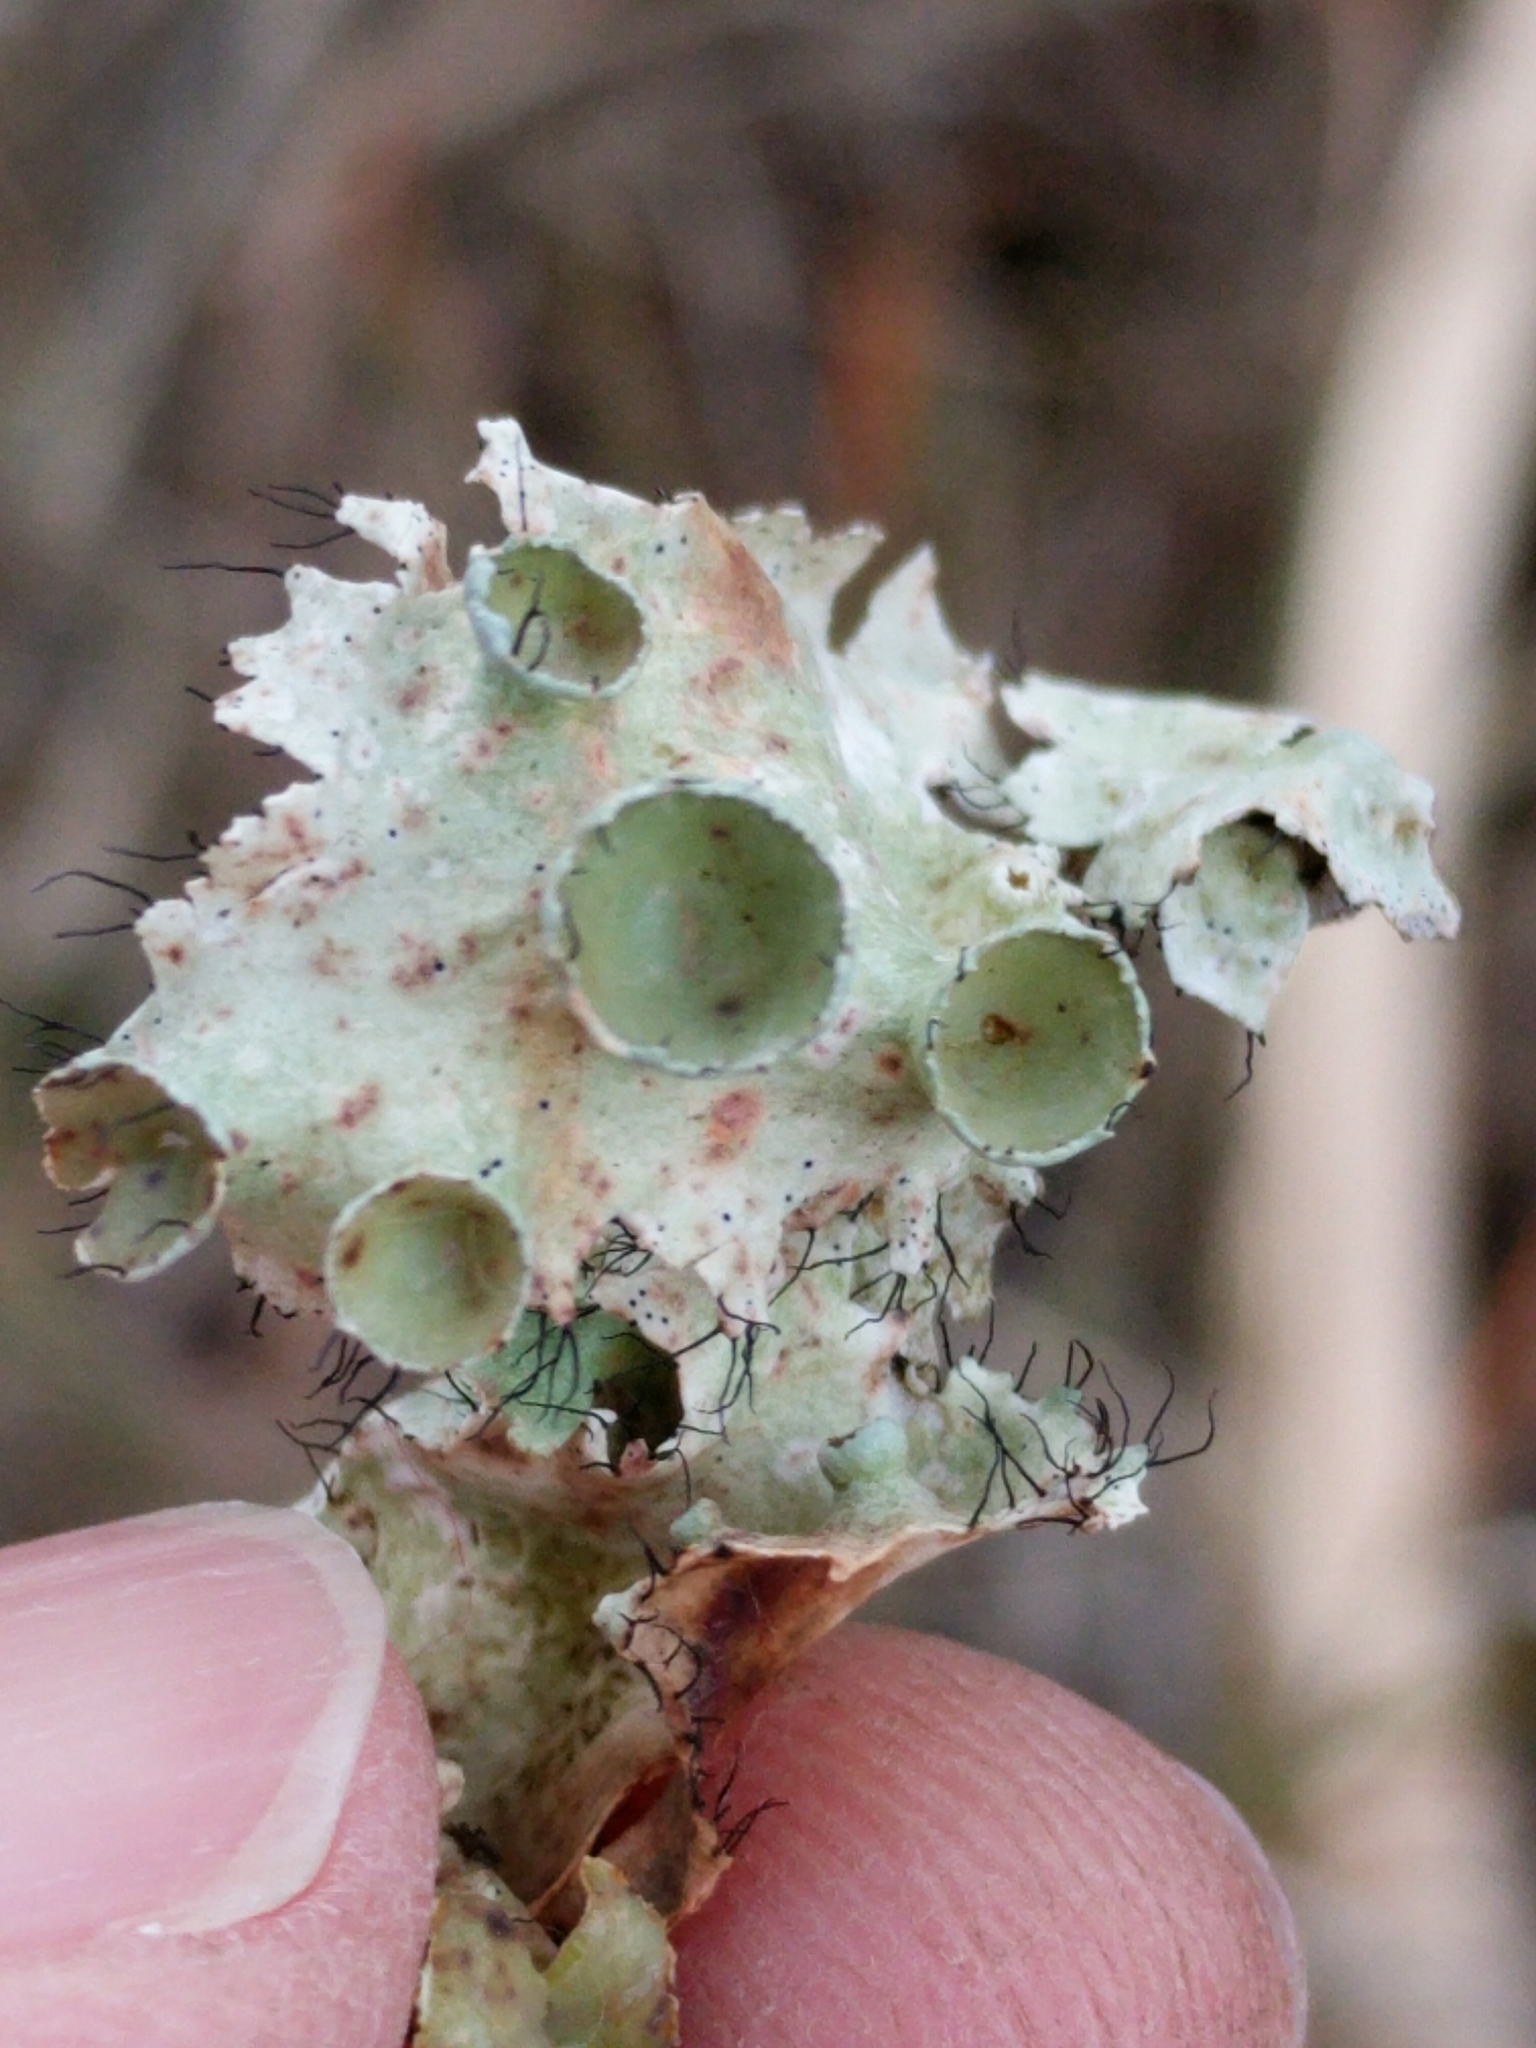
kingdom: Fungi
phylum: Ascomycota
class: Lecanoromycetes
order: Lecanorales
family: Parmeliaceae
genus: Parmotrema
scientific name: Parmotrema perforatum
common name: Perforated ruffle lichen
